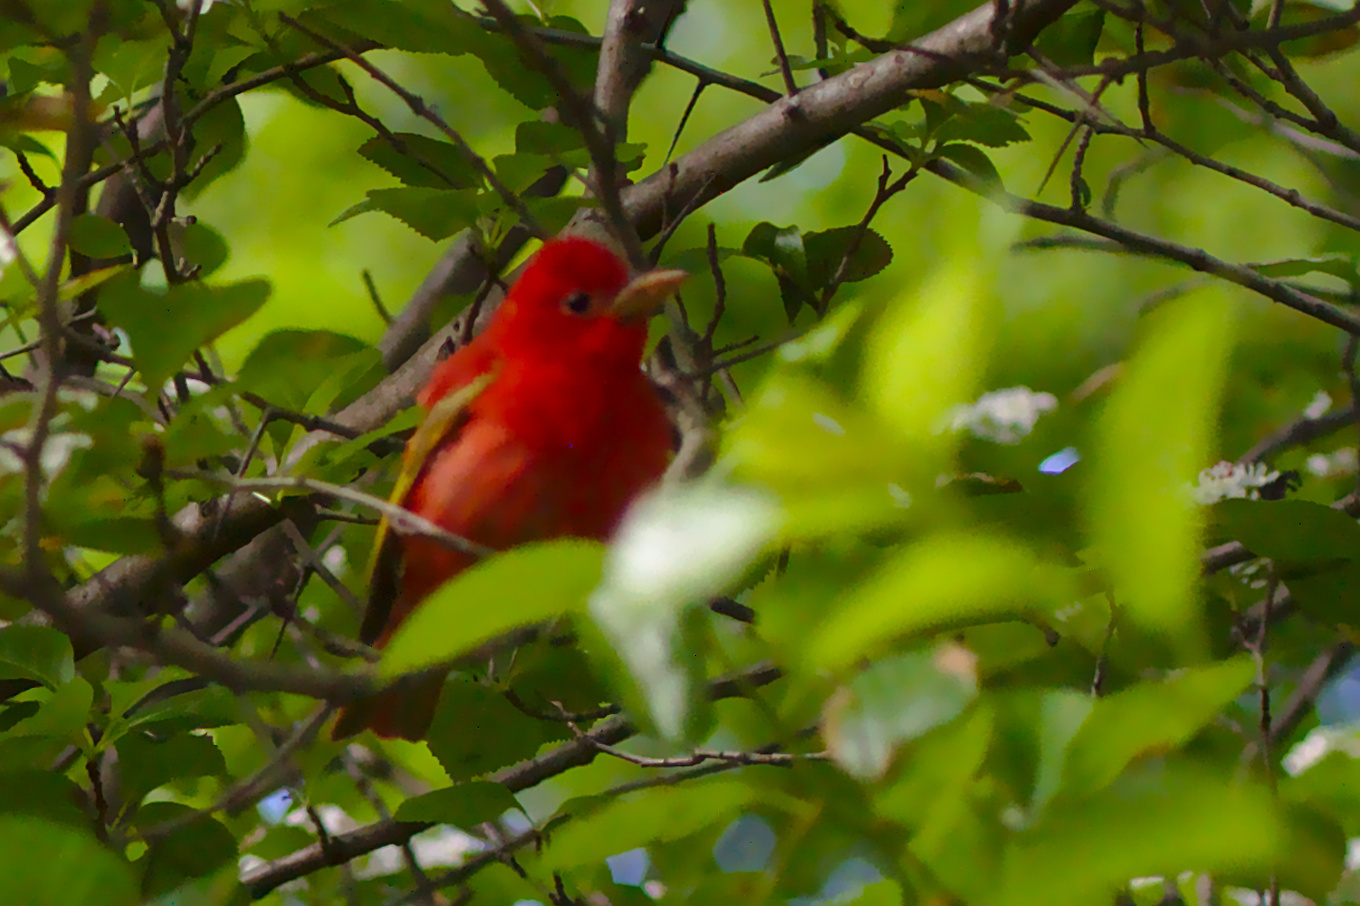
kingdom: Animalia
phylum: Chordata
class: Aves
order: Passeriformes
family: Cardinalidae
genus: Piranga
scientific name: Piranga rubra
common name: Summer tanager
